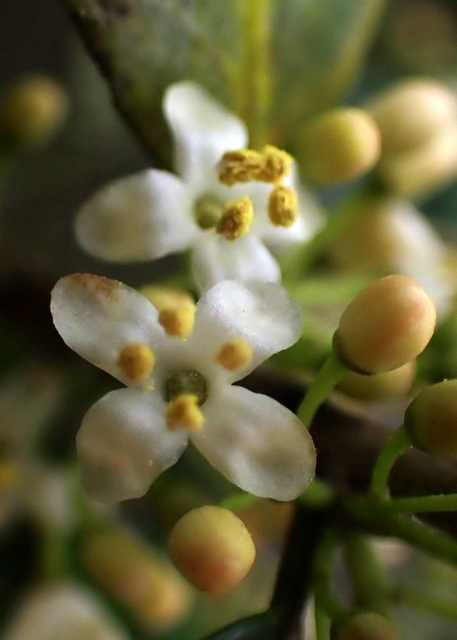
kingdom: Plantae
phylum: Tracheophyta
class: Magnoliopsida
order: Aquifoliales
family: Aquifoliaceae
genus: Ilex
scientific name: Ilex vomitoria
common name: Yaupon holly
